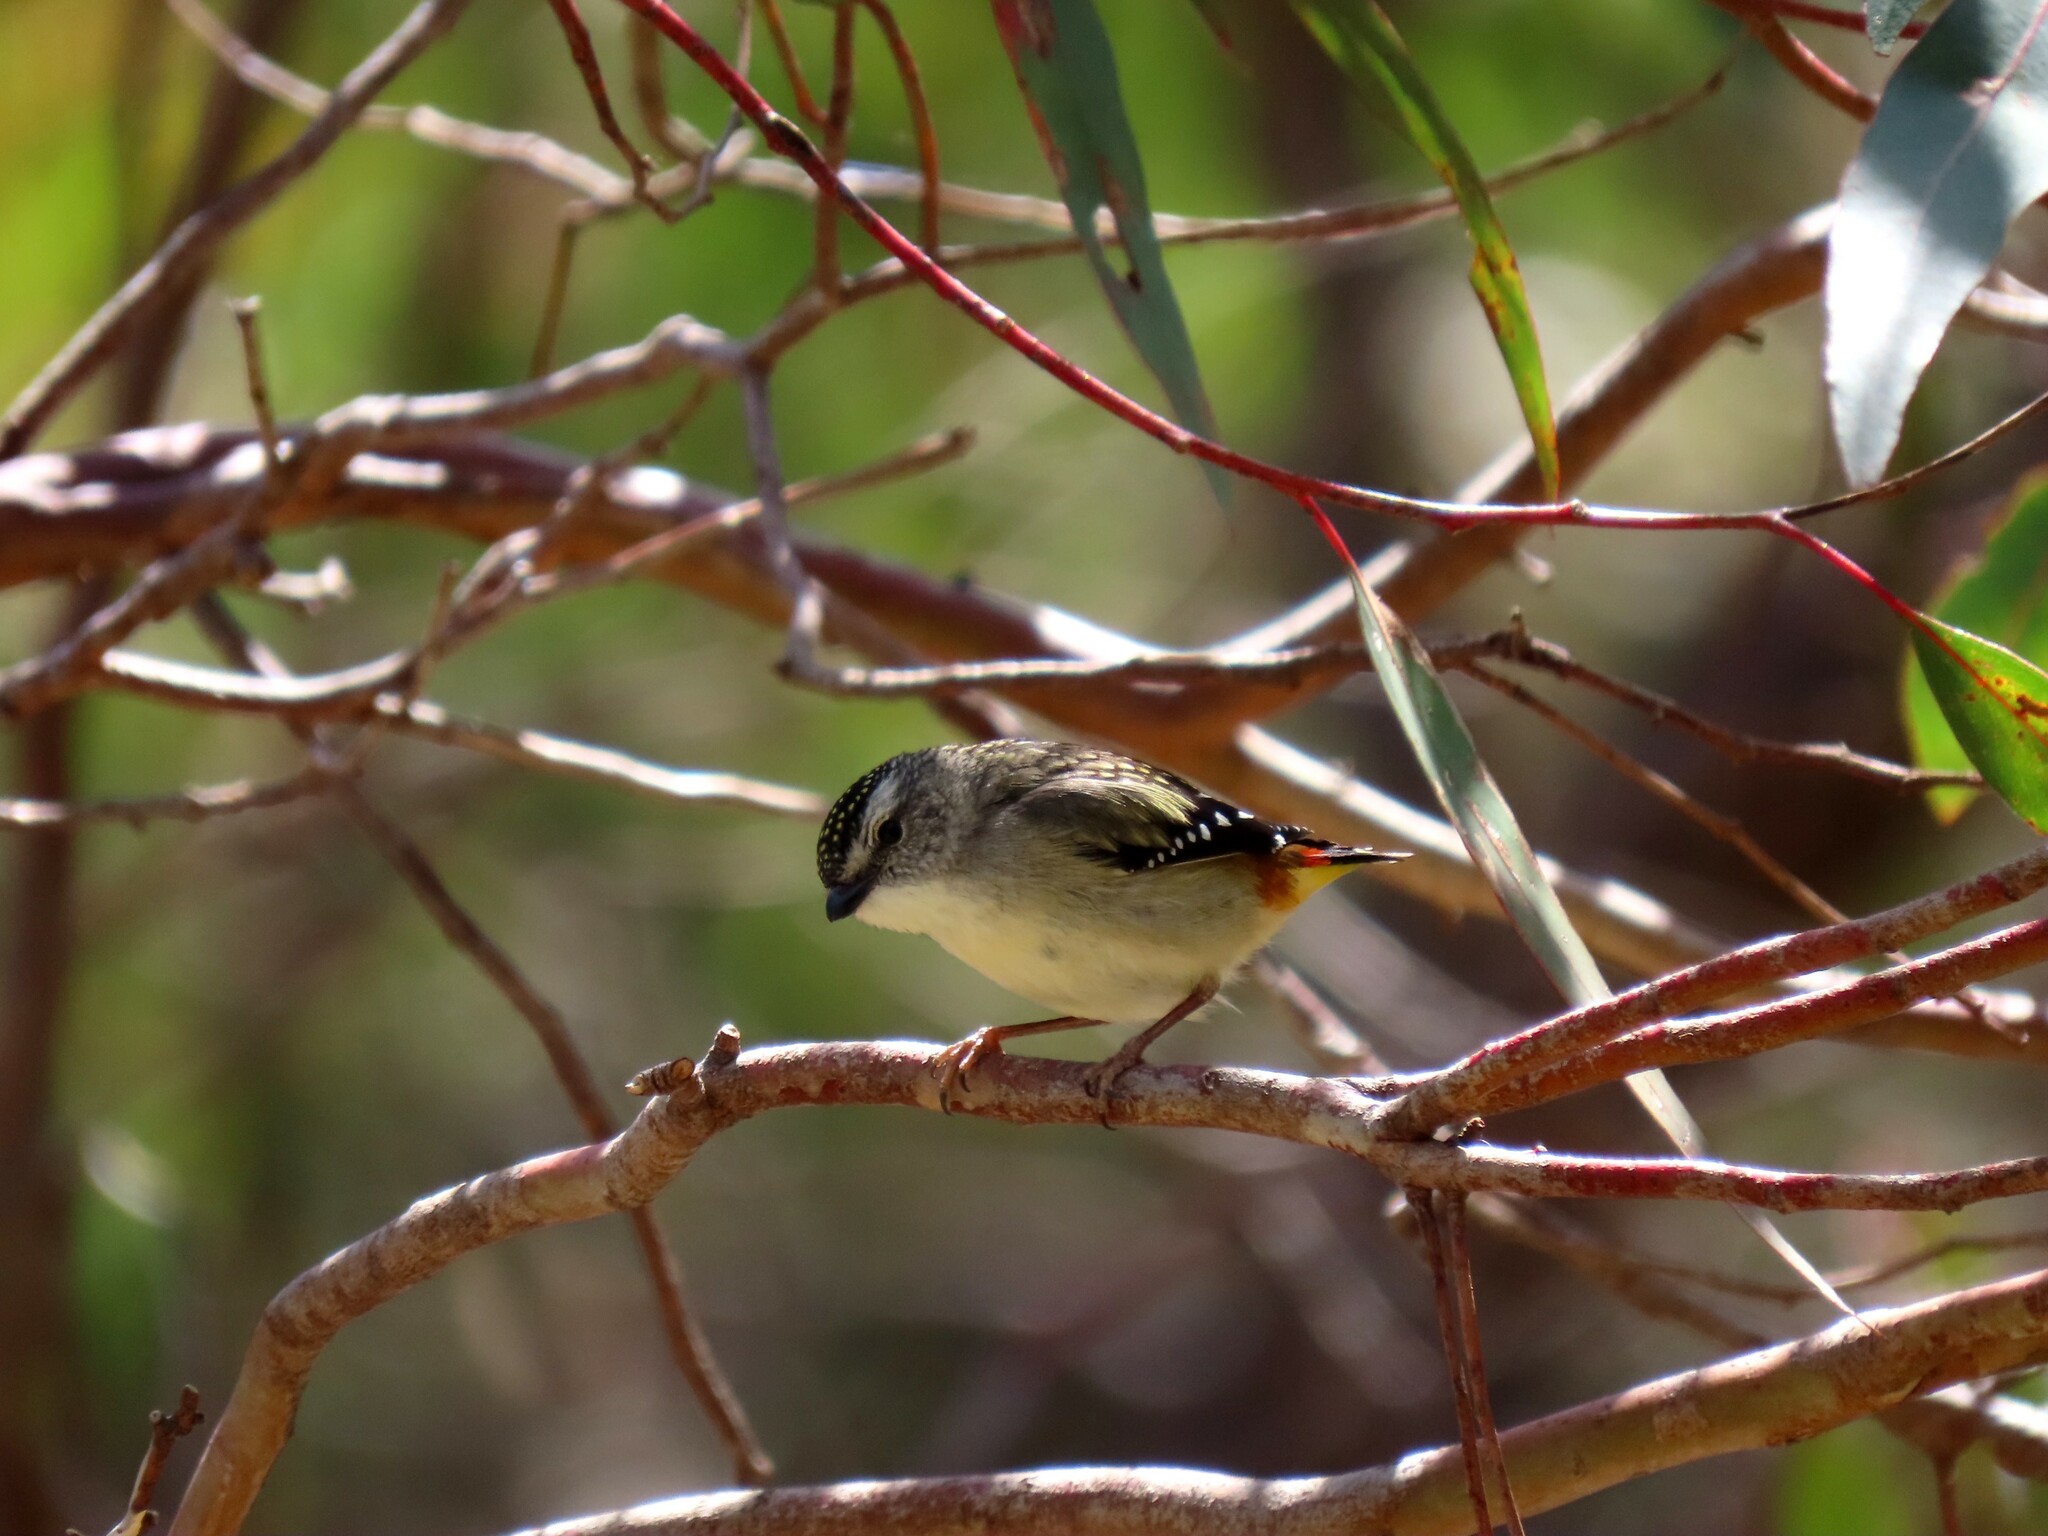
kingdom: Animalia
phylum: Chordata
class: Aves
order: Passeriformes
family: Pardalotidae
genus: Pardalotus
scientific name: Pardalotus punctatus
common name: Spotted pardalote
